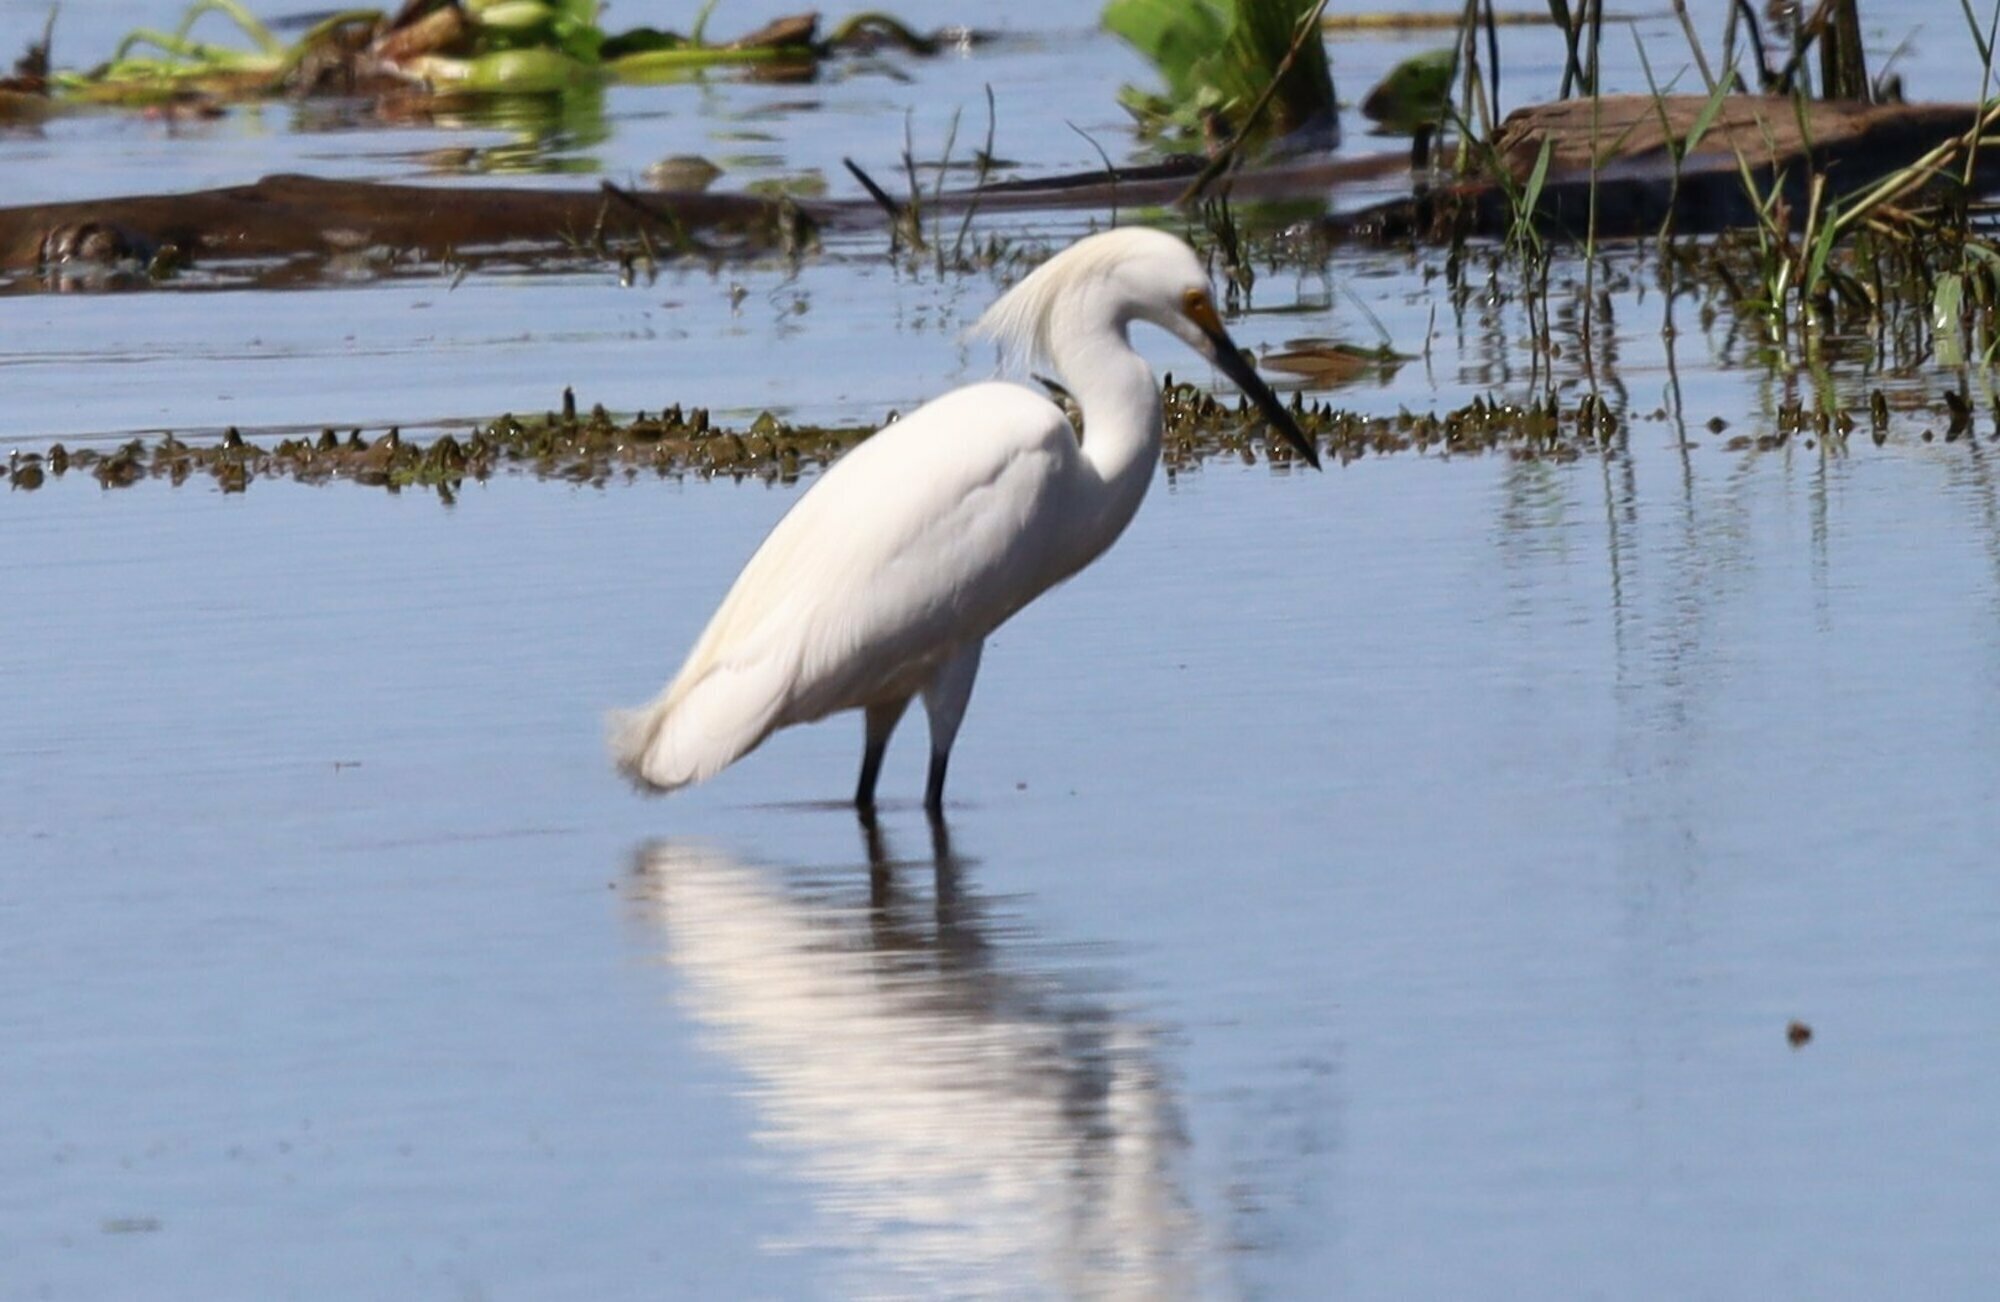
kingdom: Animalia
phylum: Chordata
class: Aves
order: Pelecaniformes
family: Ardeidae
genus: Egretta
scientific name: Egretta thula
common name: Snowy egret
